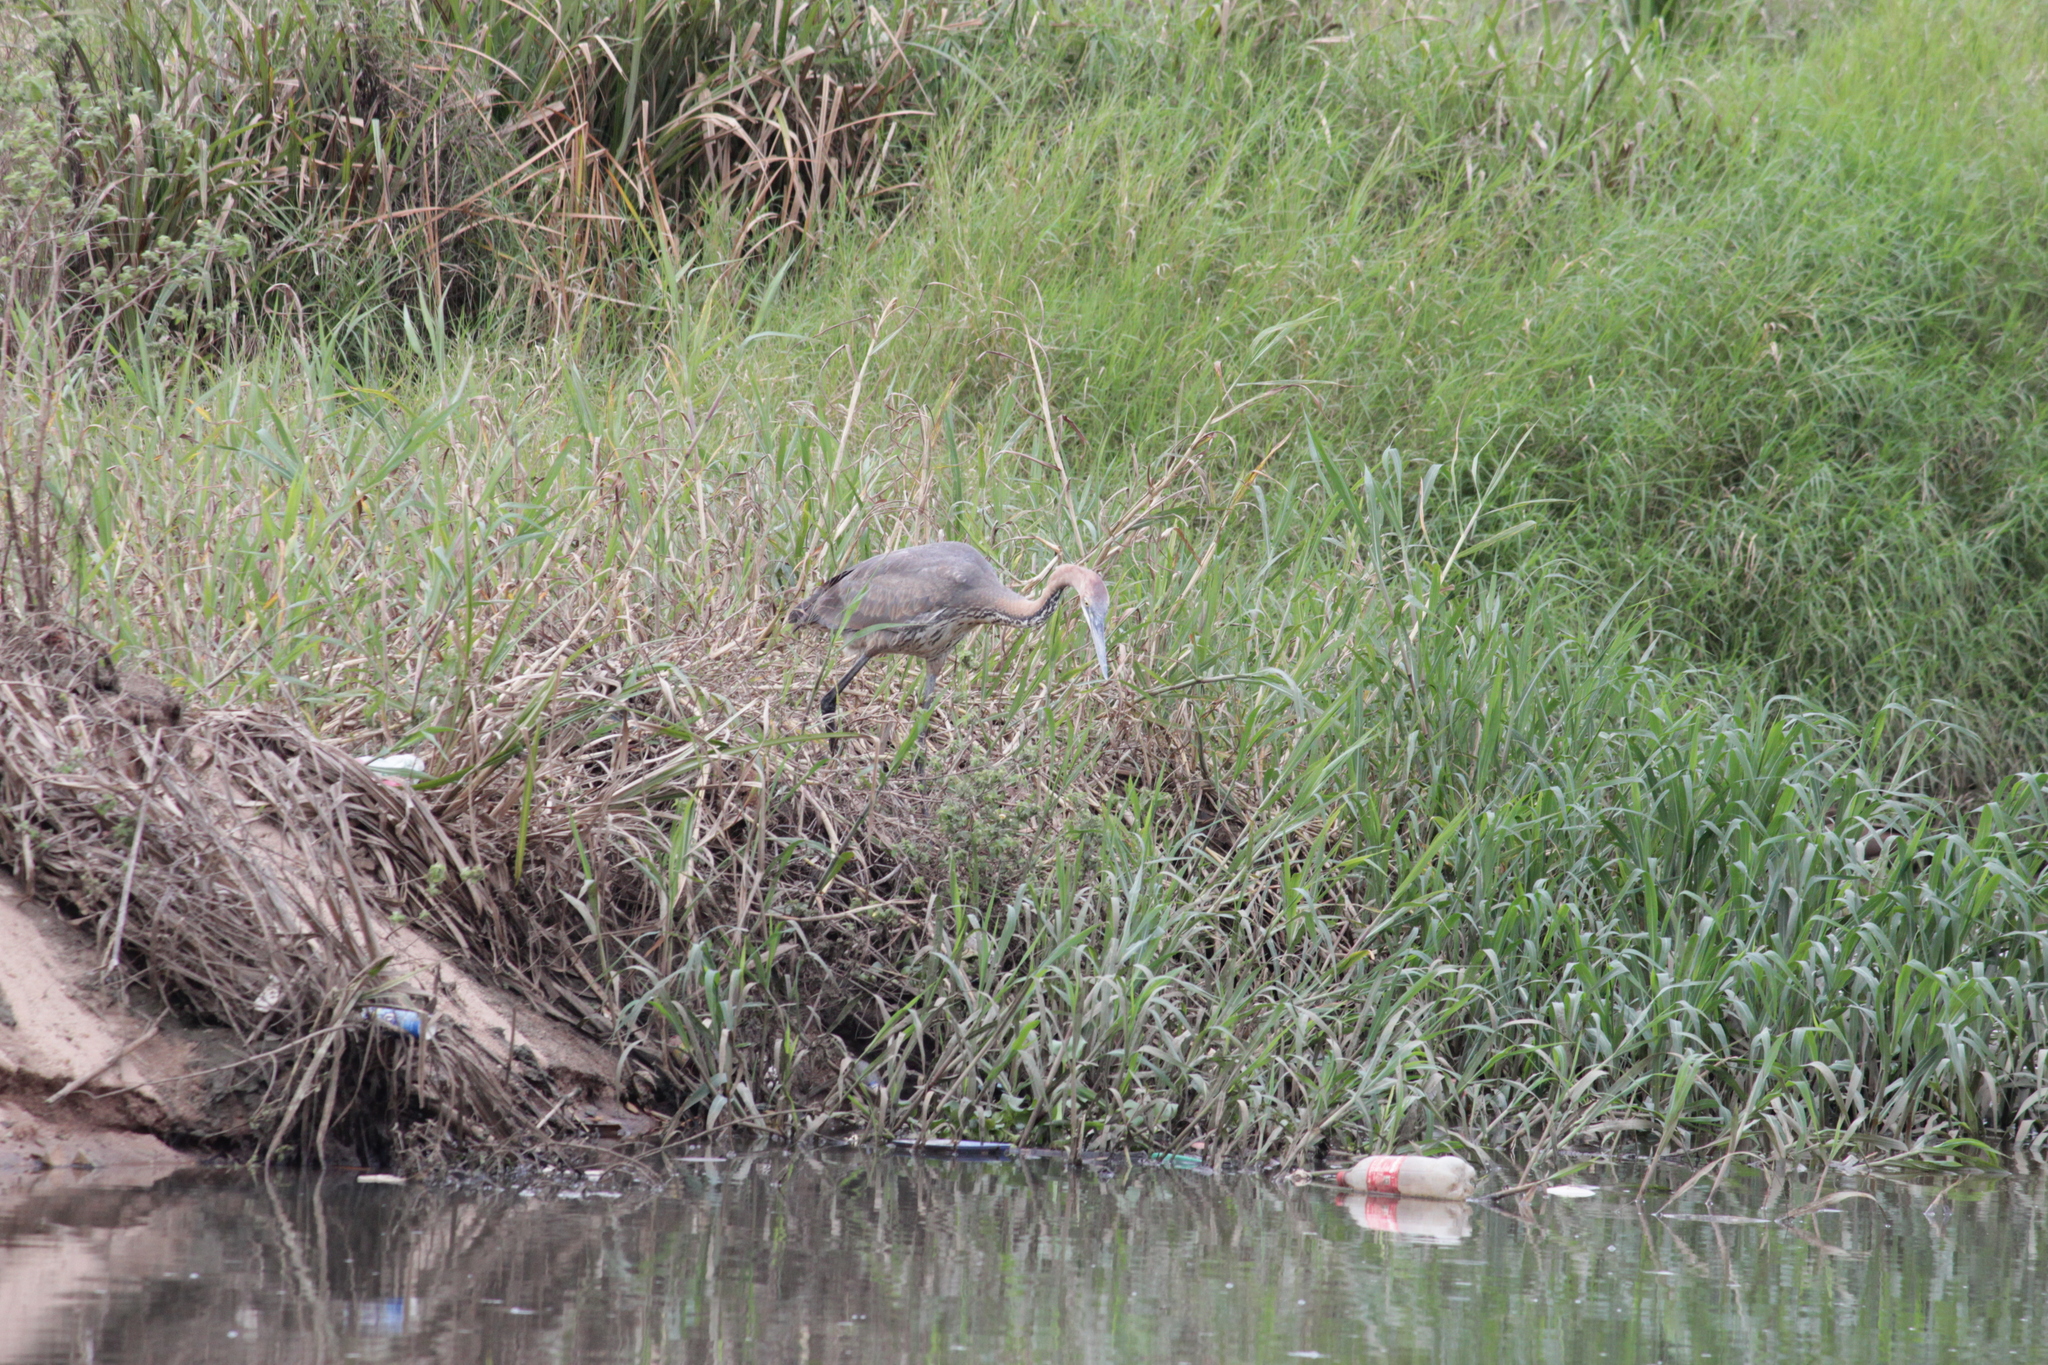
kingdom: Animalia
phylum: Chordata
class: Aves
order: Pelecaniformes
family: Ardeidae
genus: Ardea
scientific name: Ardea goliath
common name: Goliath heron
